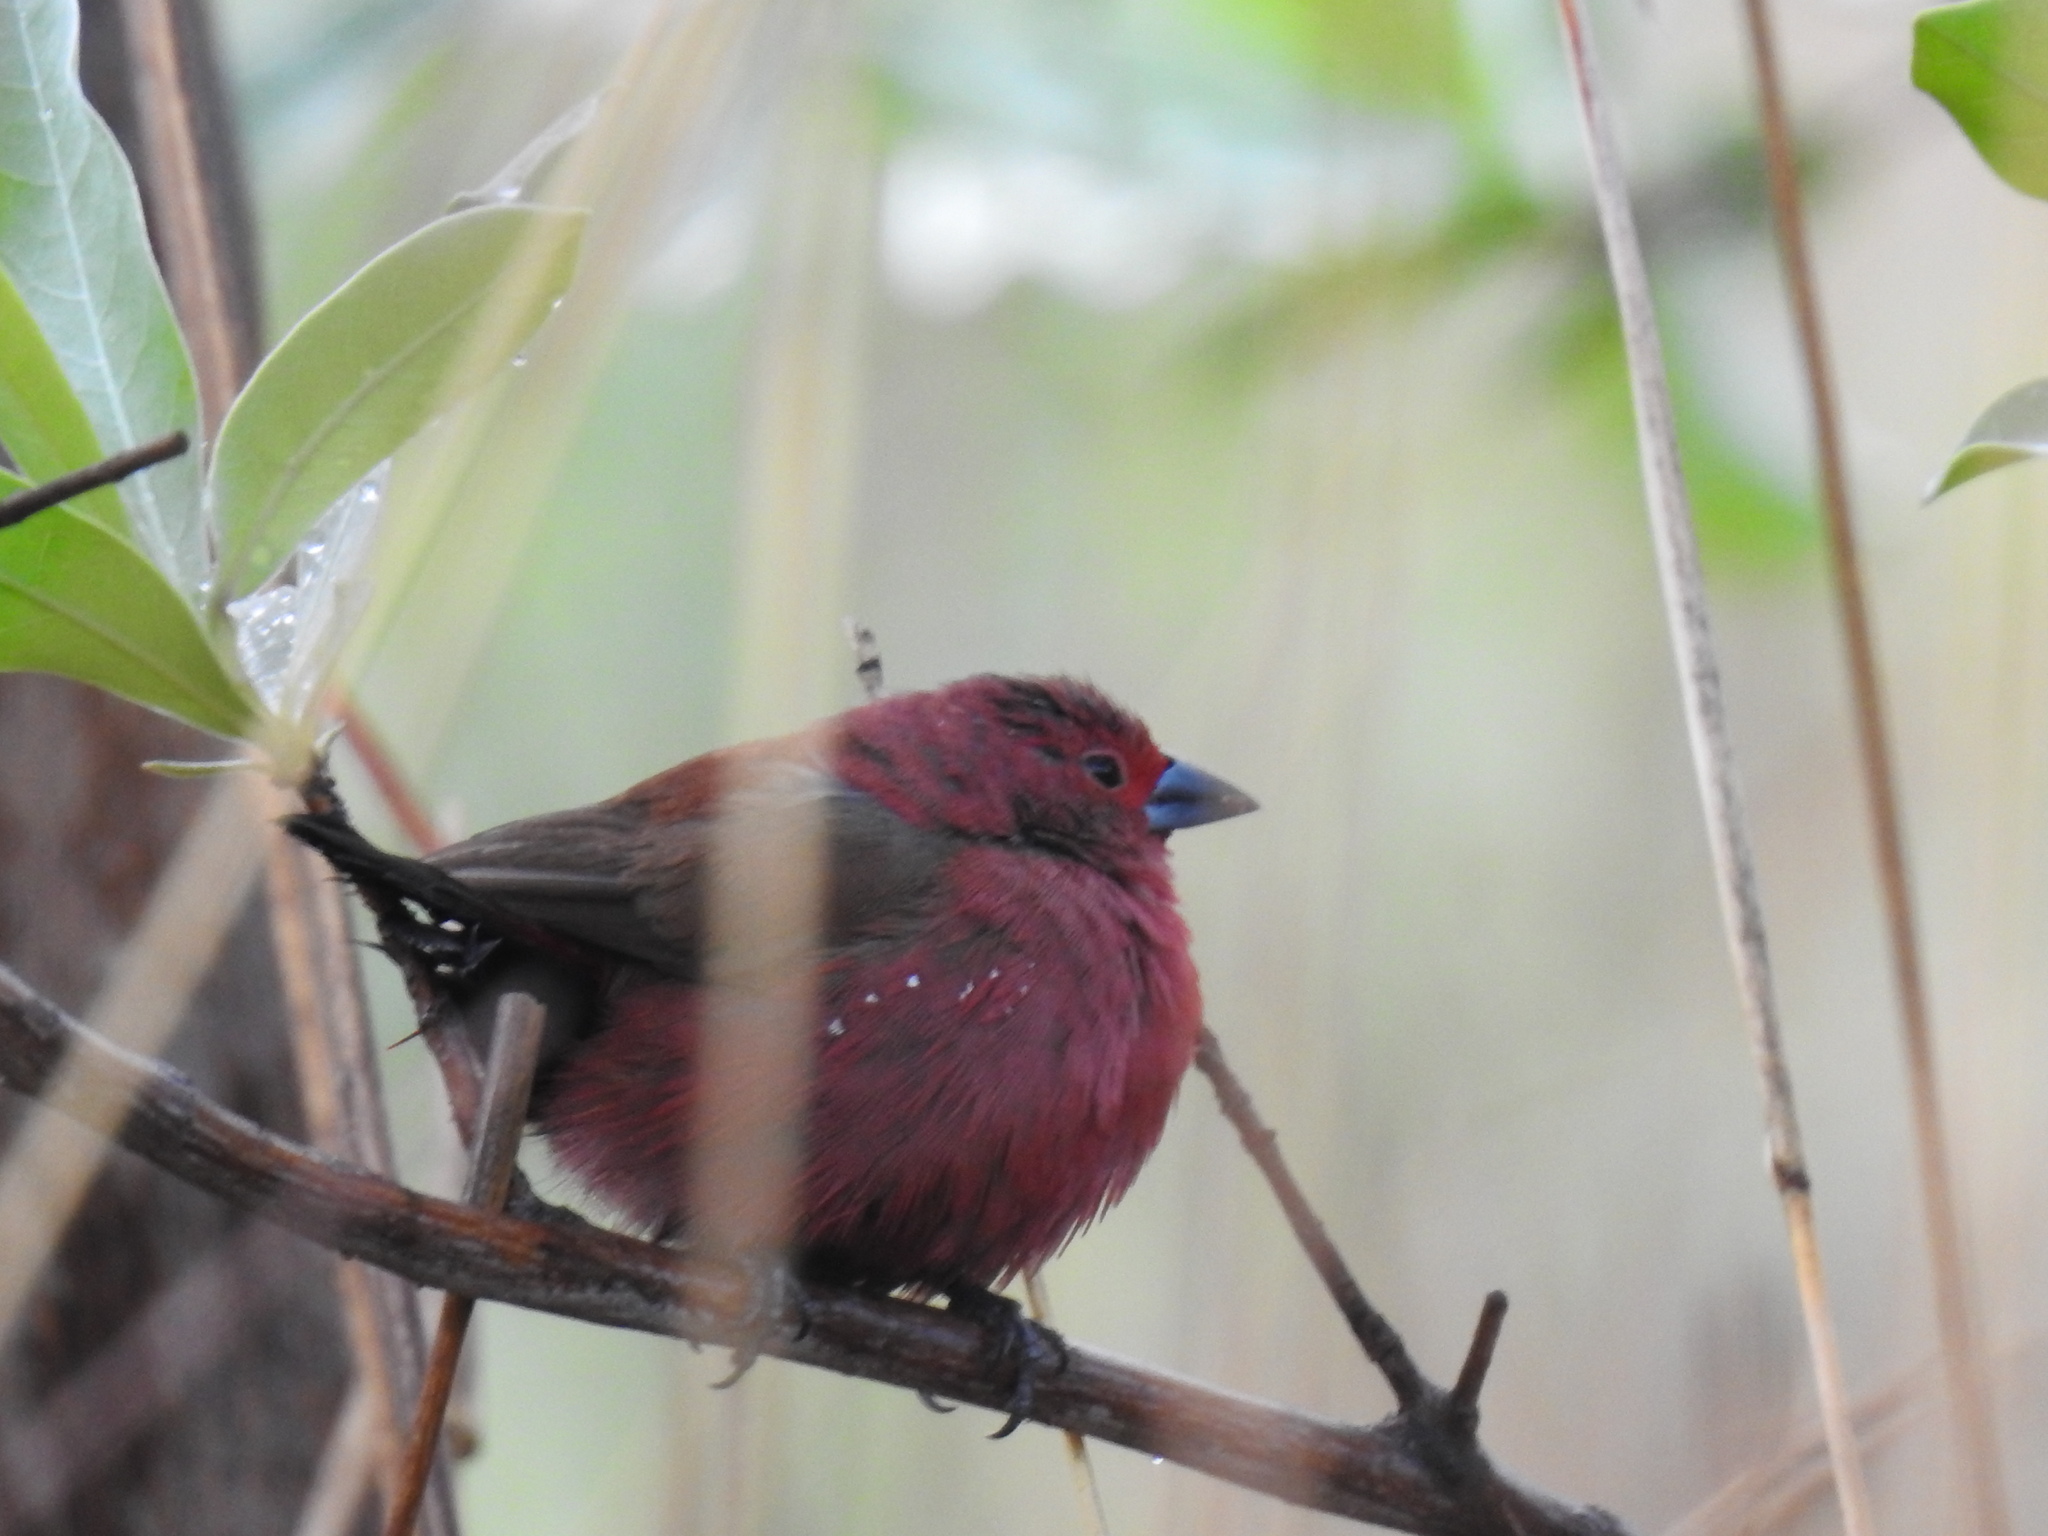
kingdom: Animalia
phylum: Chordata
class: Aves
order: Passeriformes
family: Estrildidae
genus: Lagonosticta
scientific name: Lagonosticta rhodopareia
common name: Jameson's firefinch
